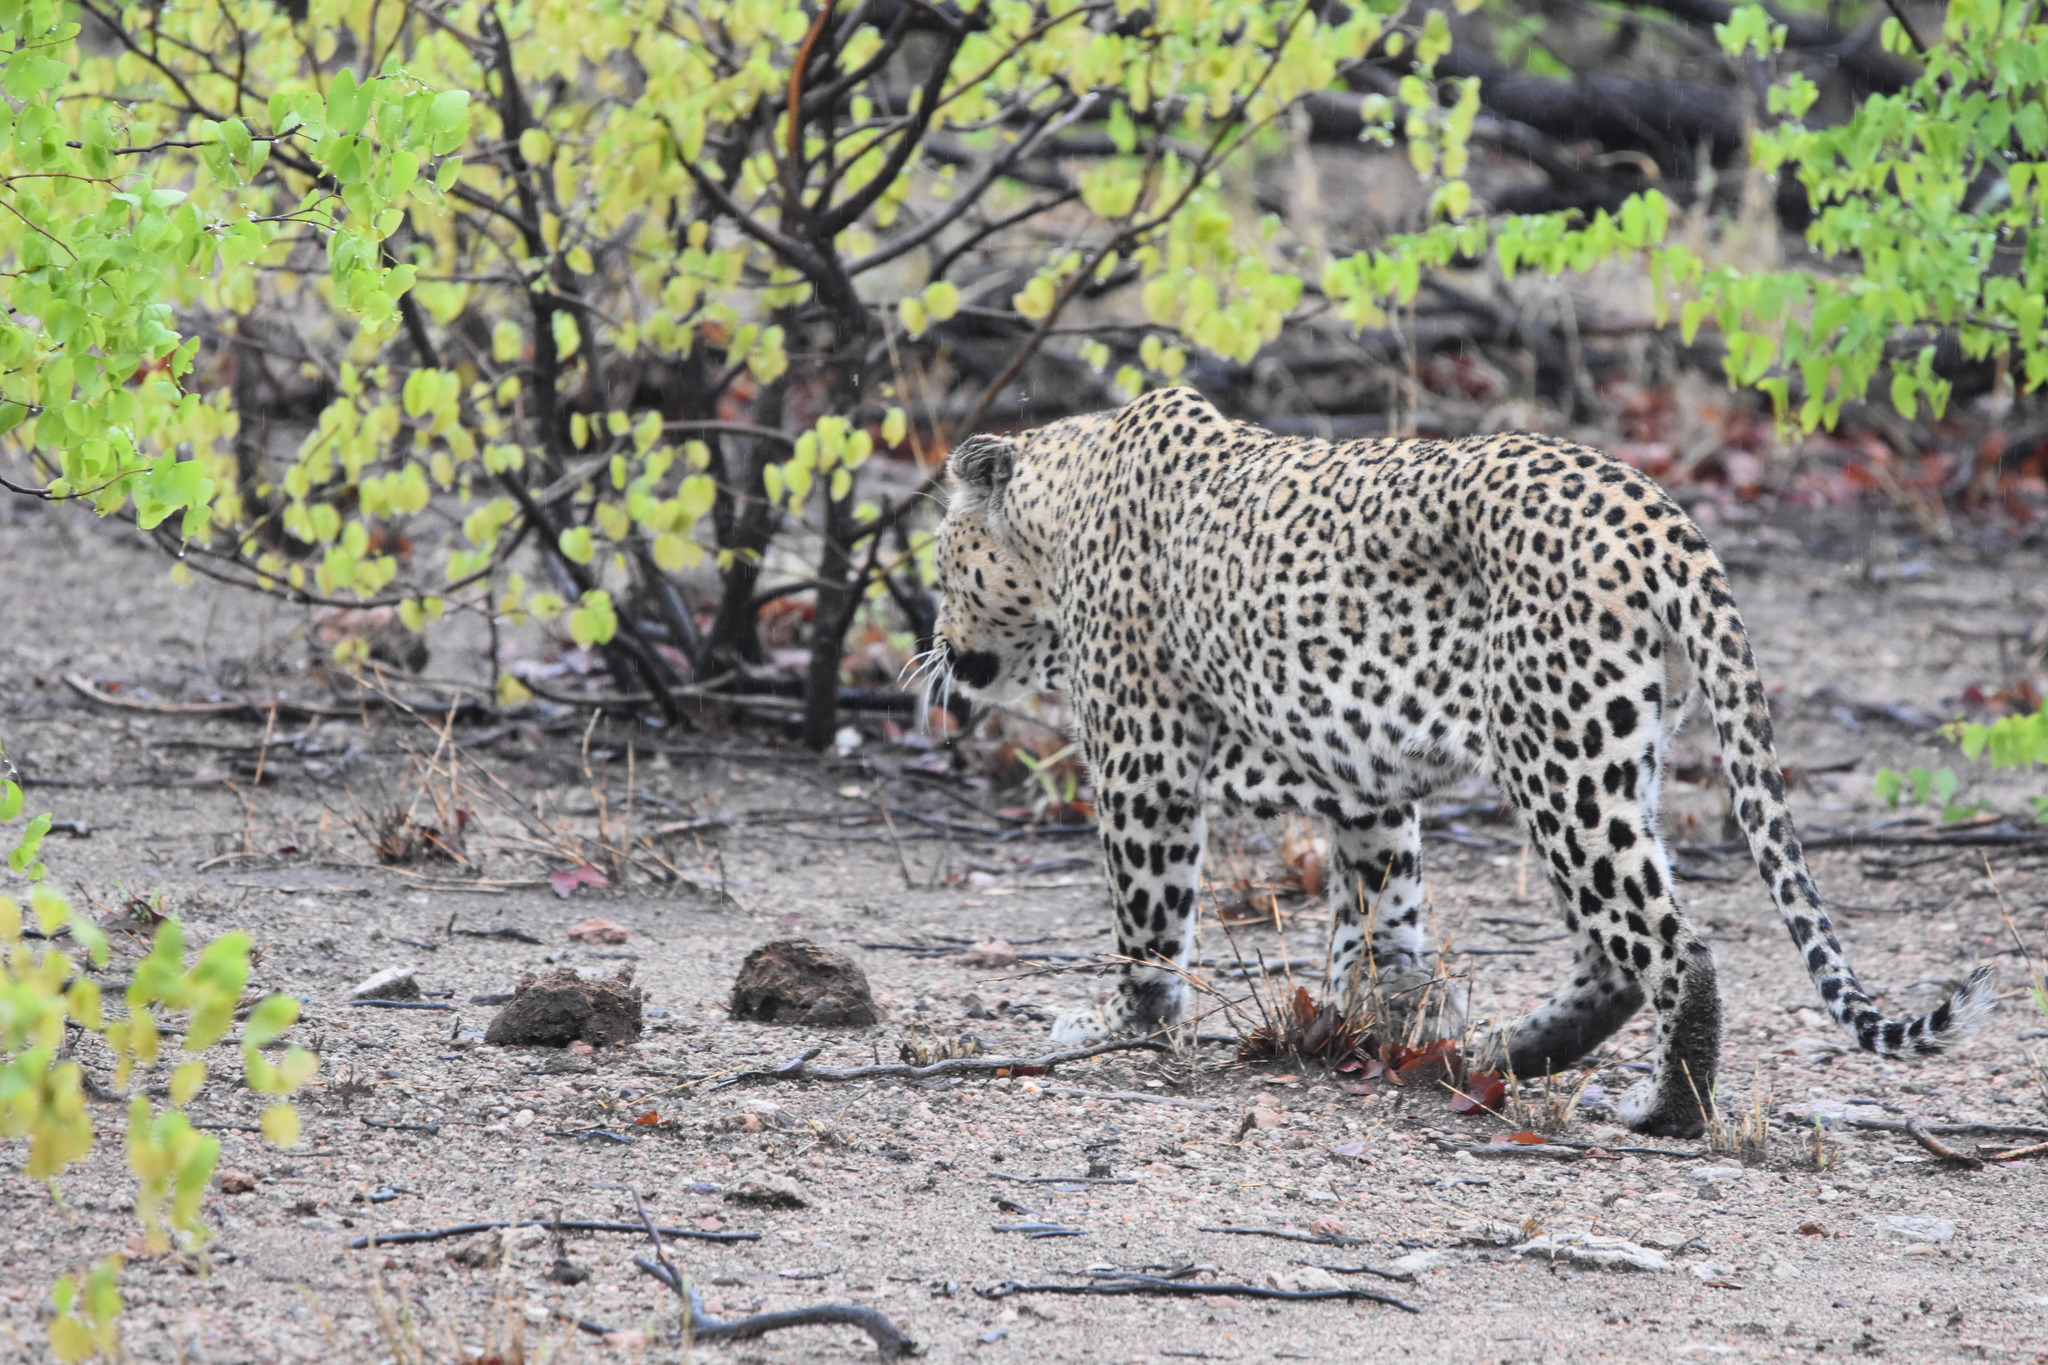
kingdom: Animalia
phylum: Chordata
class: Mammalia
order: Carnivora
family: Felidae
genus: Panthera
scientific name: Panthera pardus
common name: Leopard
